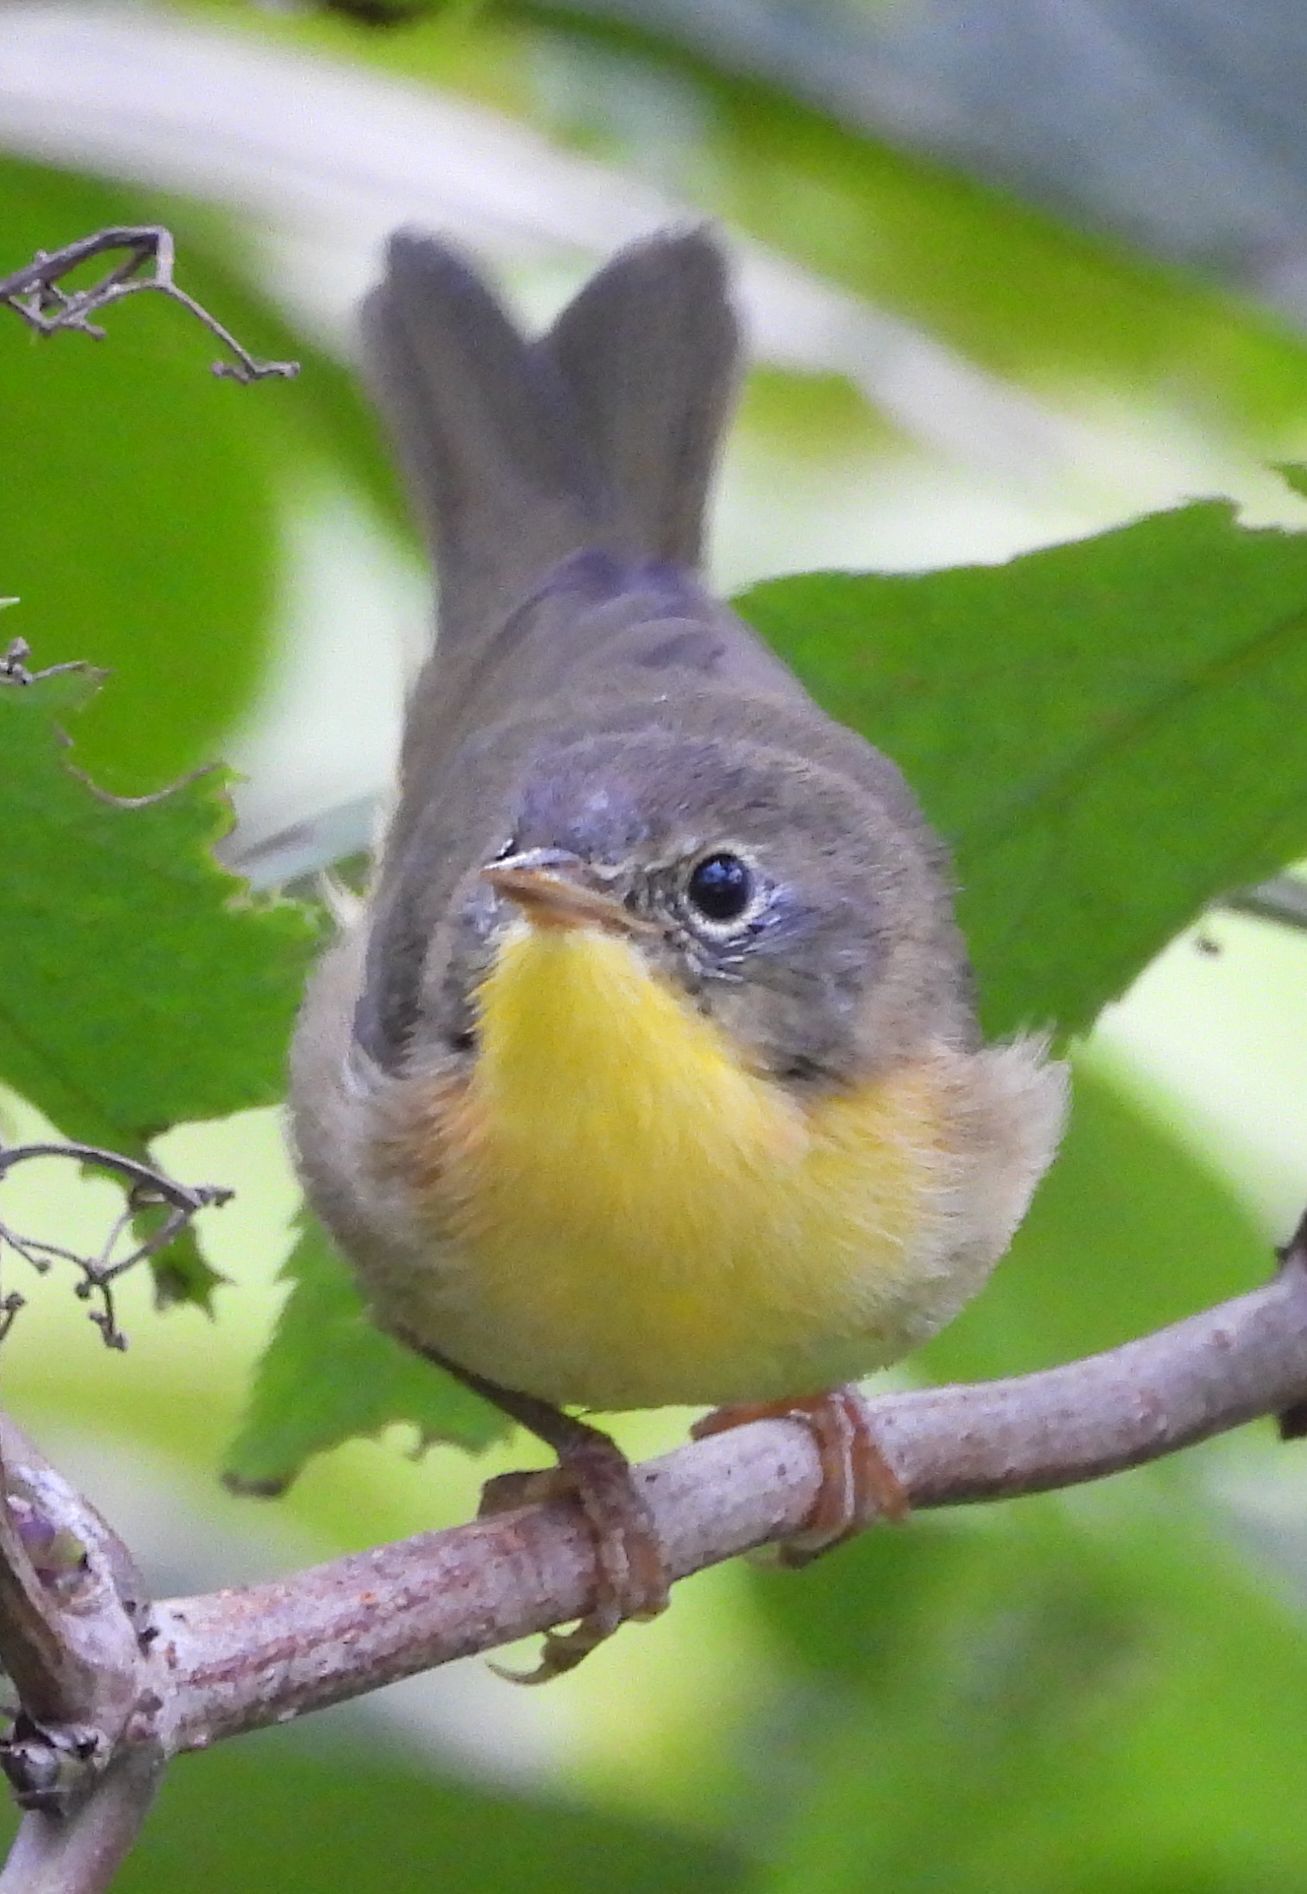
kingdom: Animalia
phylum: Chordata
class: Aves
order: Passeriformes
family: Parulidae
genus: Geothlypis
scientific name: Geothlypis trichas
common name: Common yellowthroat
